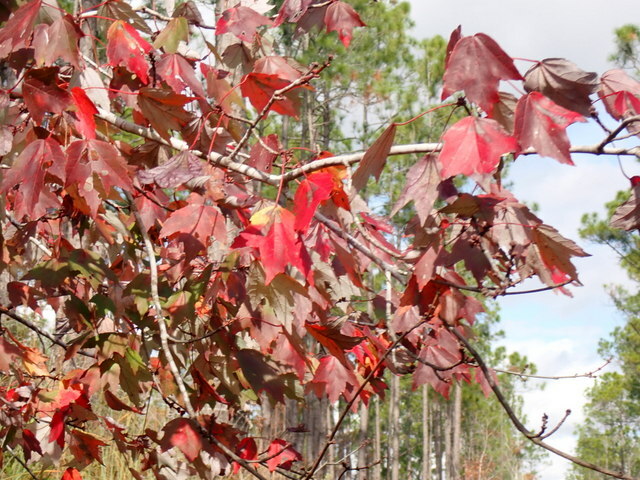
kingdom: Plantae
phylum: Tracheophyta
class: Magnoliopsida
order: Sapindales
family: Sapindaceae
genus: Acer
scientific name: Acer rubrum
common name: Red maple
